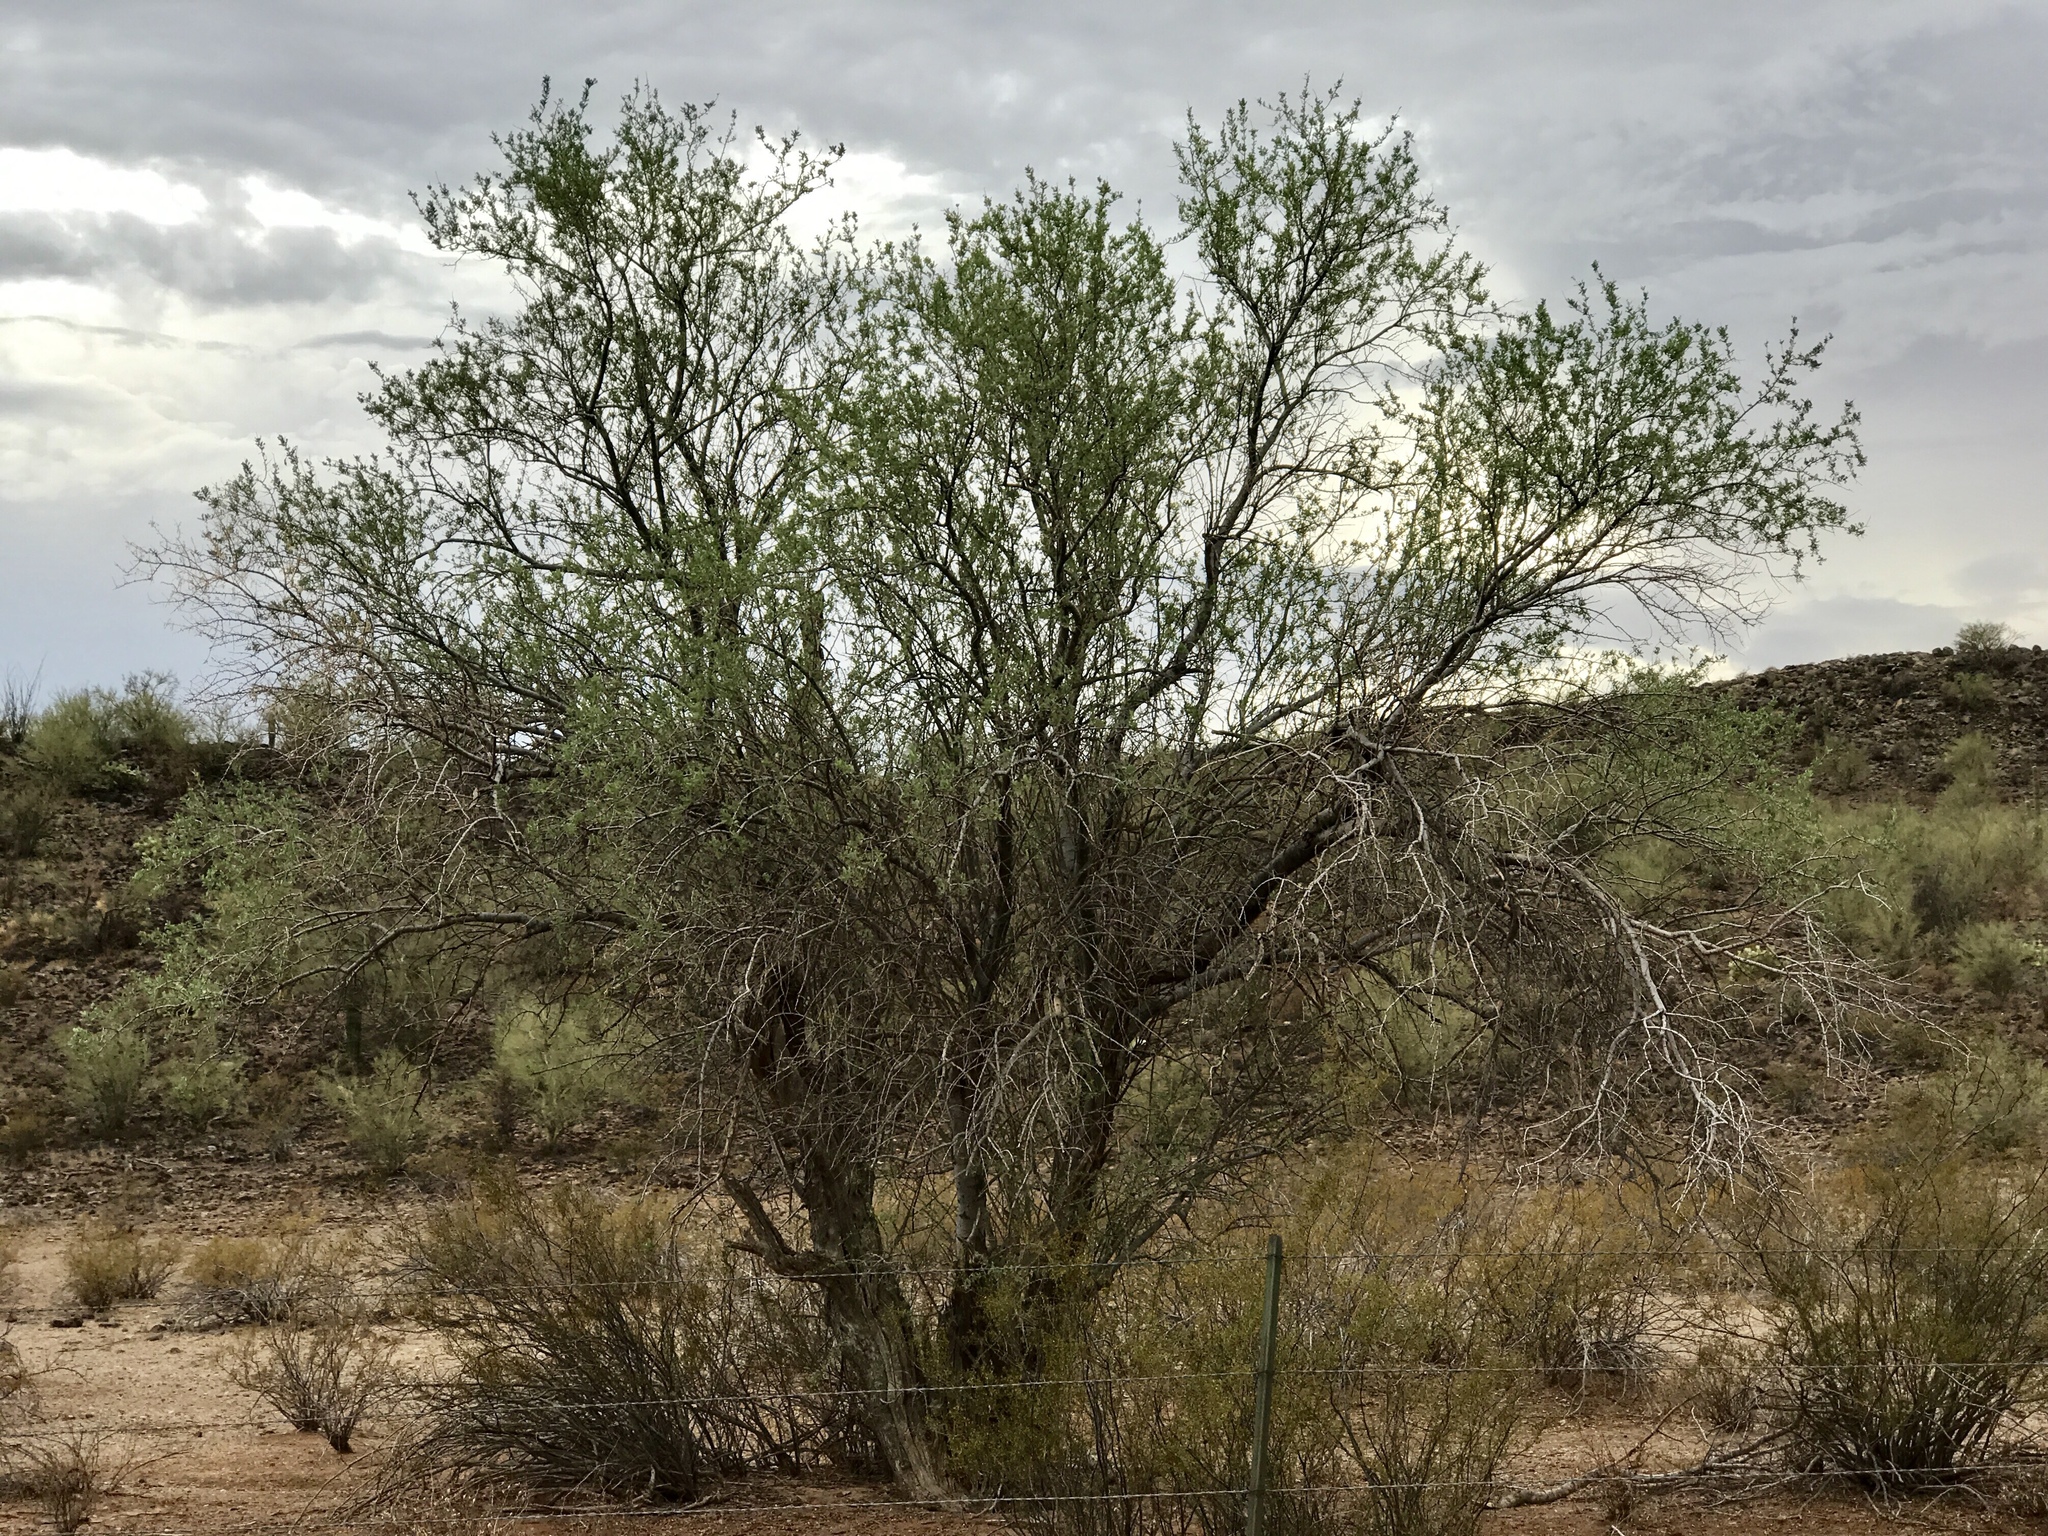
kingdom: Plantae
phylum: Tracheophyta
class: Magnoliopsida
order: Fabales
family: Fabaceae
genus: Olneya
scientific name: Olneya tesota
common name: Desert ironwood
